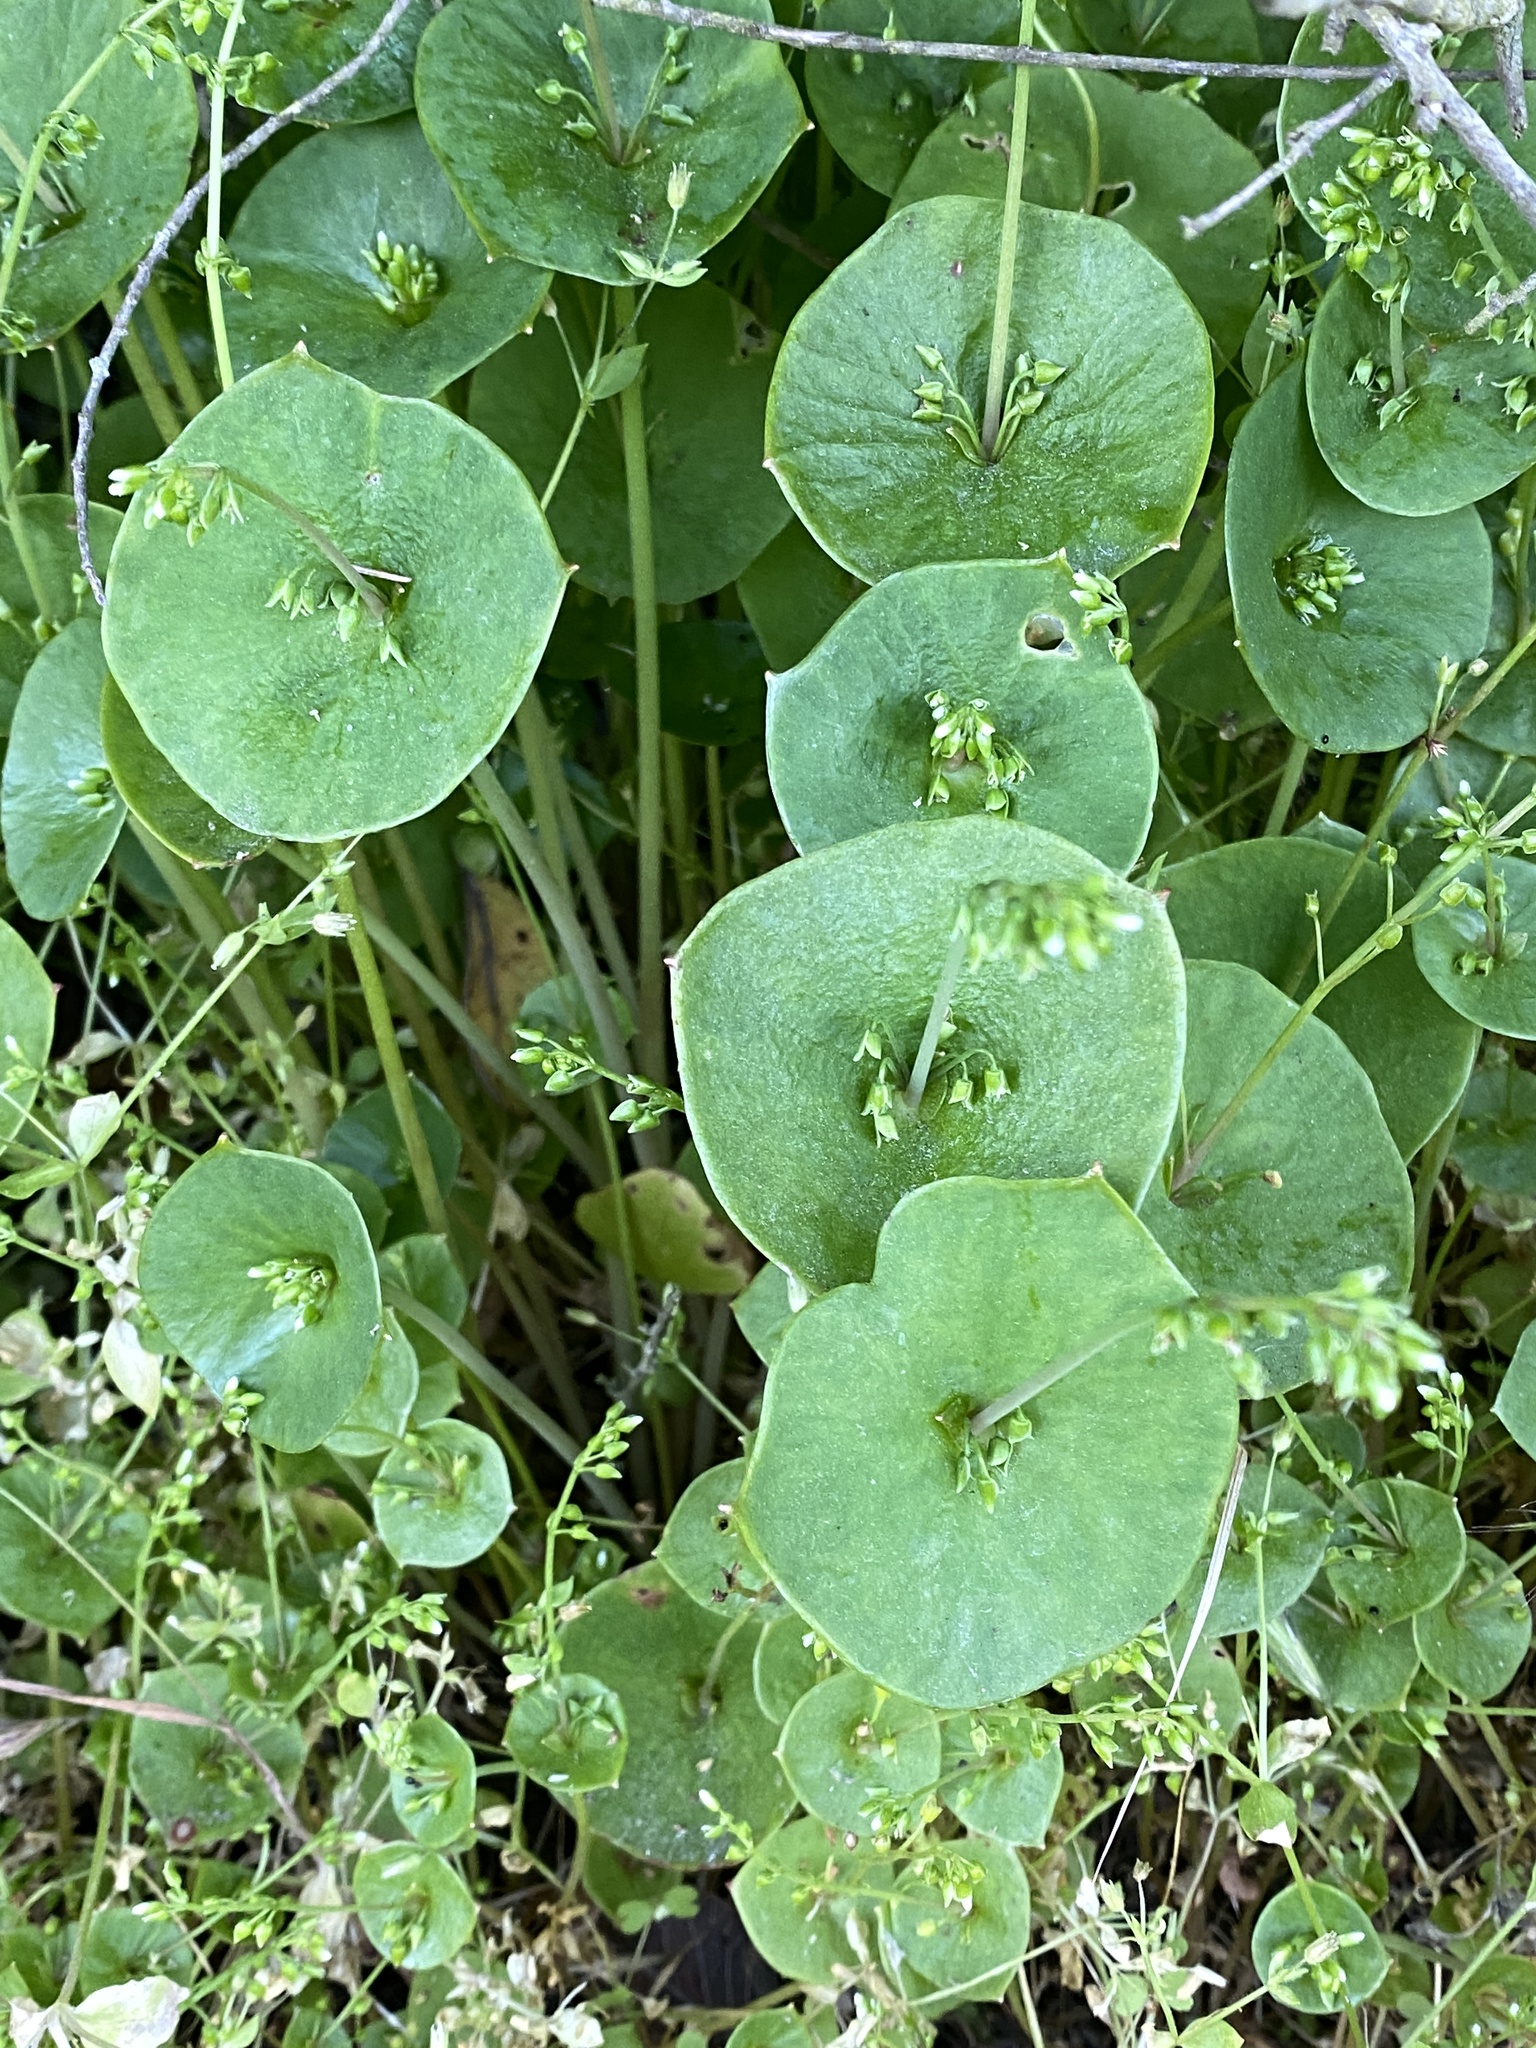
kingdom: Plantae
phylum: Tracheophyta
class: Magnoliopsida
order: Caryophyllales
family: Montiaceae
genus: Claytonia
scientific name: Claytonia perfoliata
